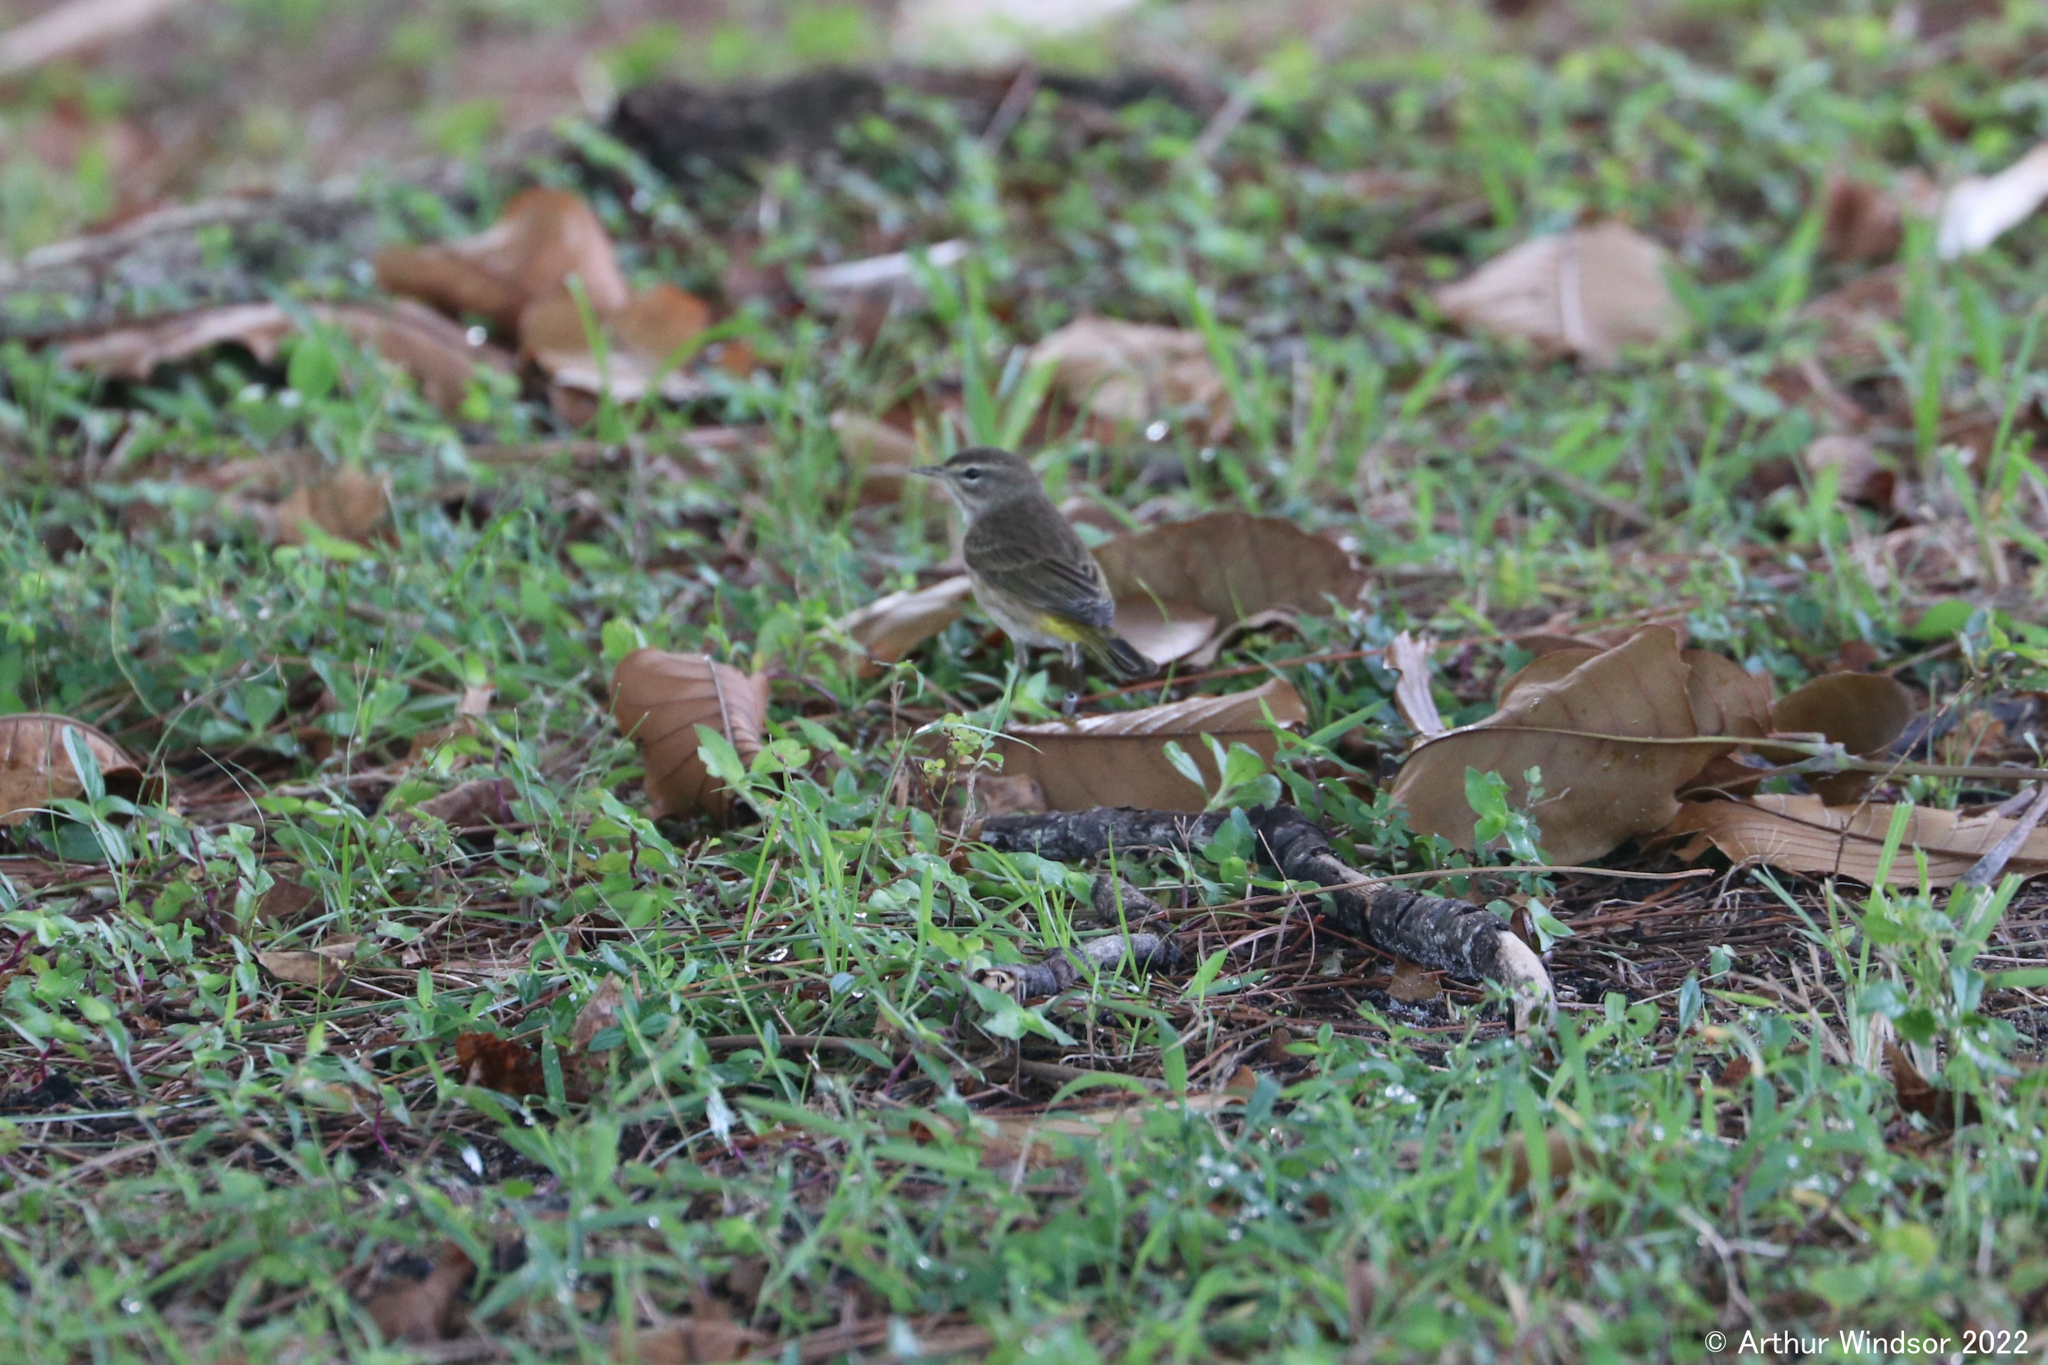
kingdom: Animalia
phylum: Chordata
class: Aves
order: Passeriformes
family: Parulidae
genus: Setophaga
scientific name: Setophaga palmarum
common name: Palm warbler
